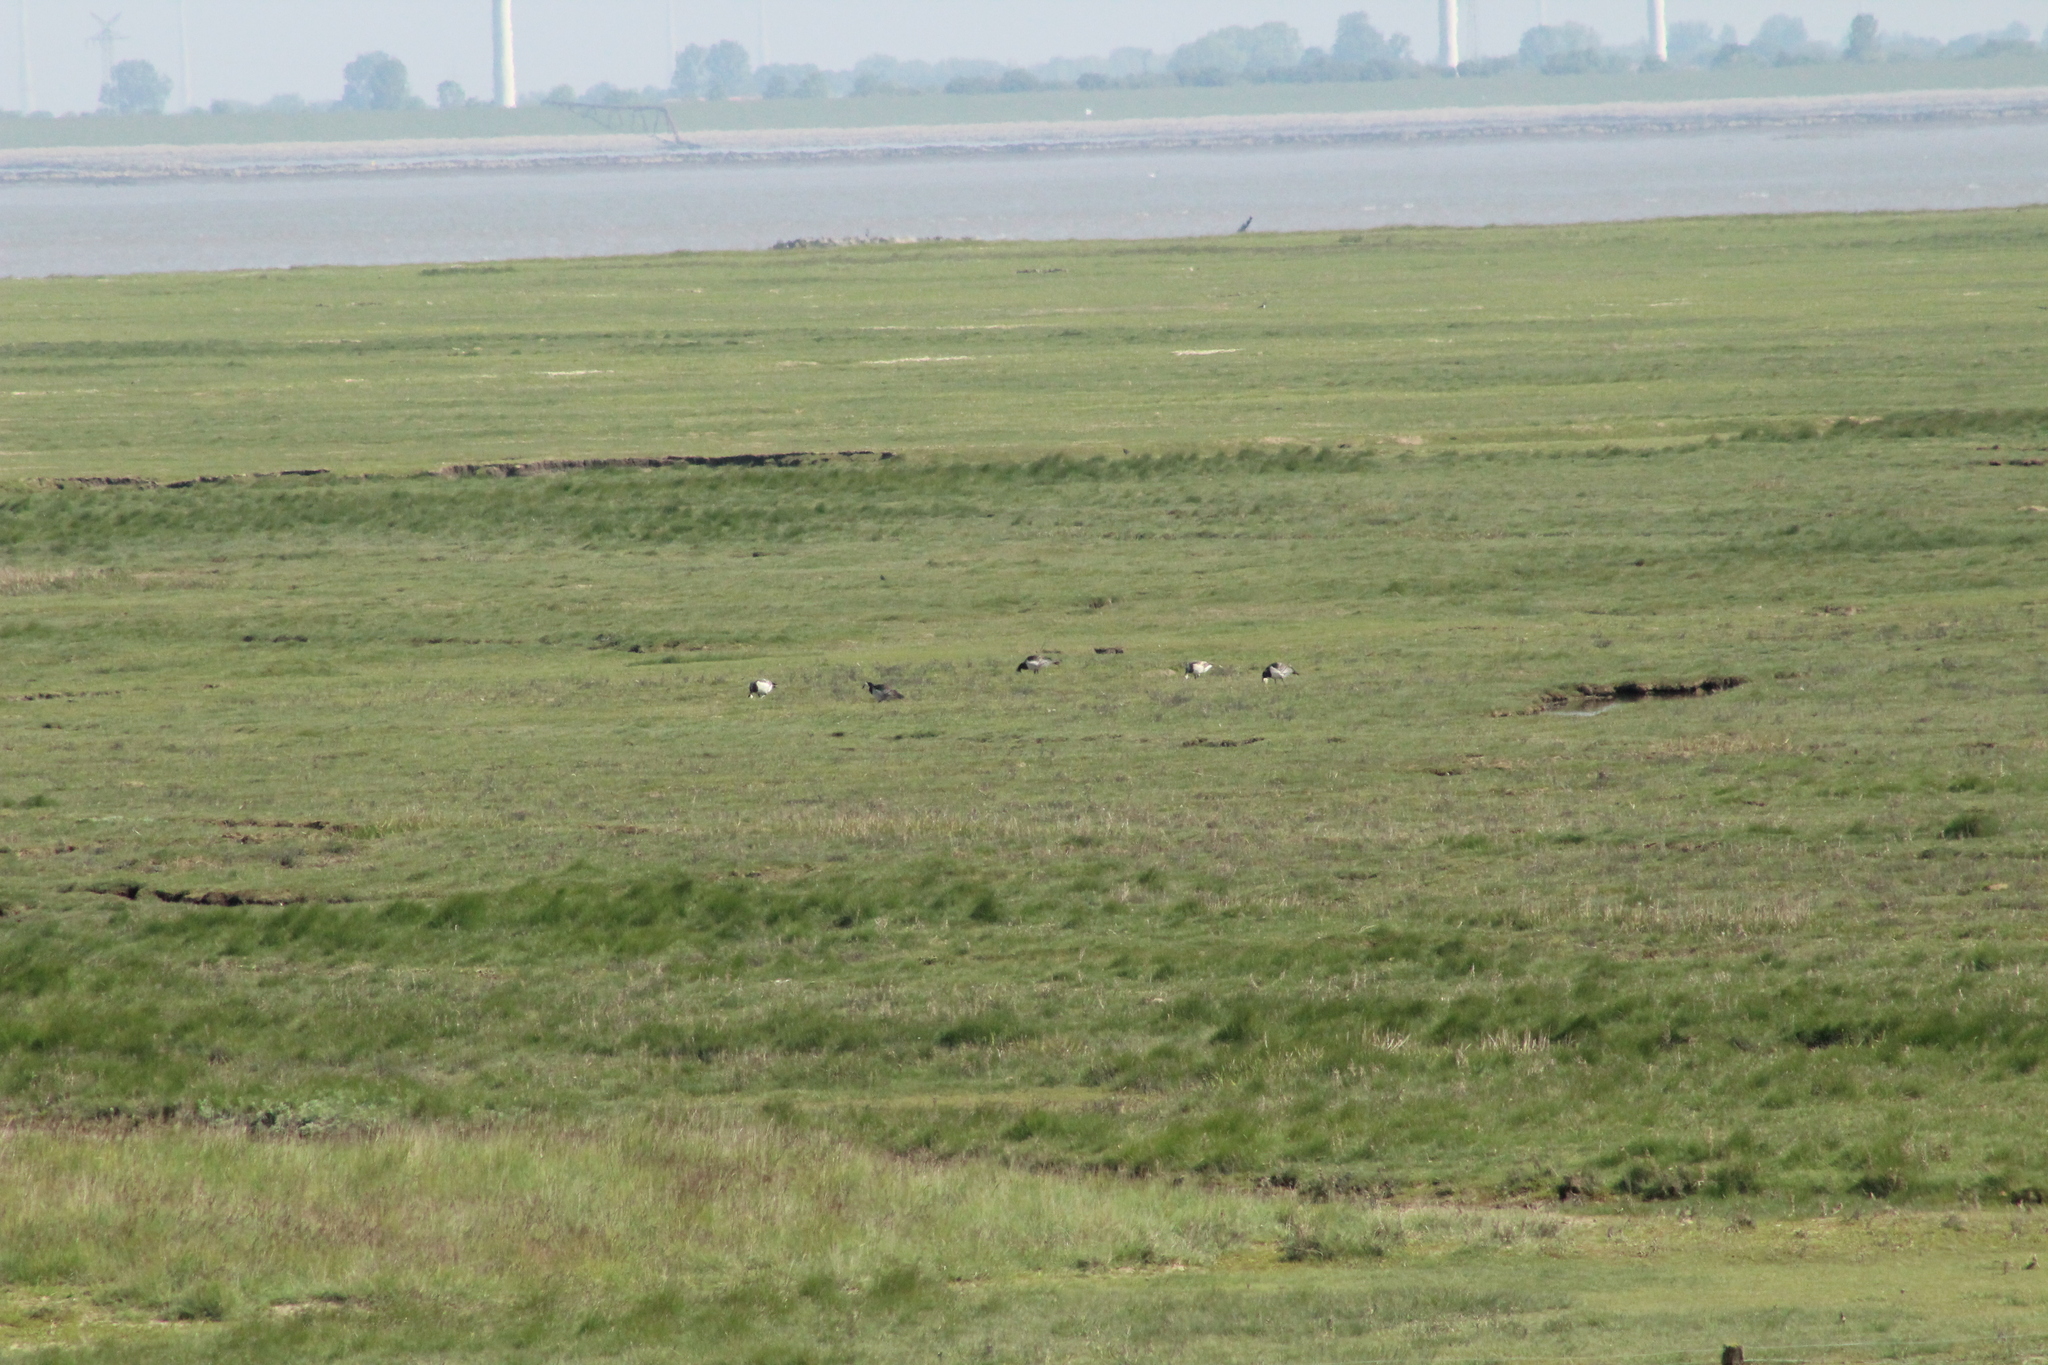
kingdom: Animalia
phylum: Chordata
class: Aves
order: Anseriformes
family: Anatidae
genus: Branta
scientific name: Branta leucopsis
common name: Barnacle goose
